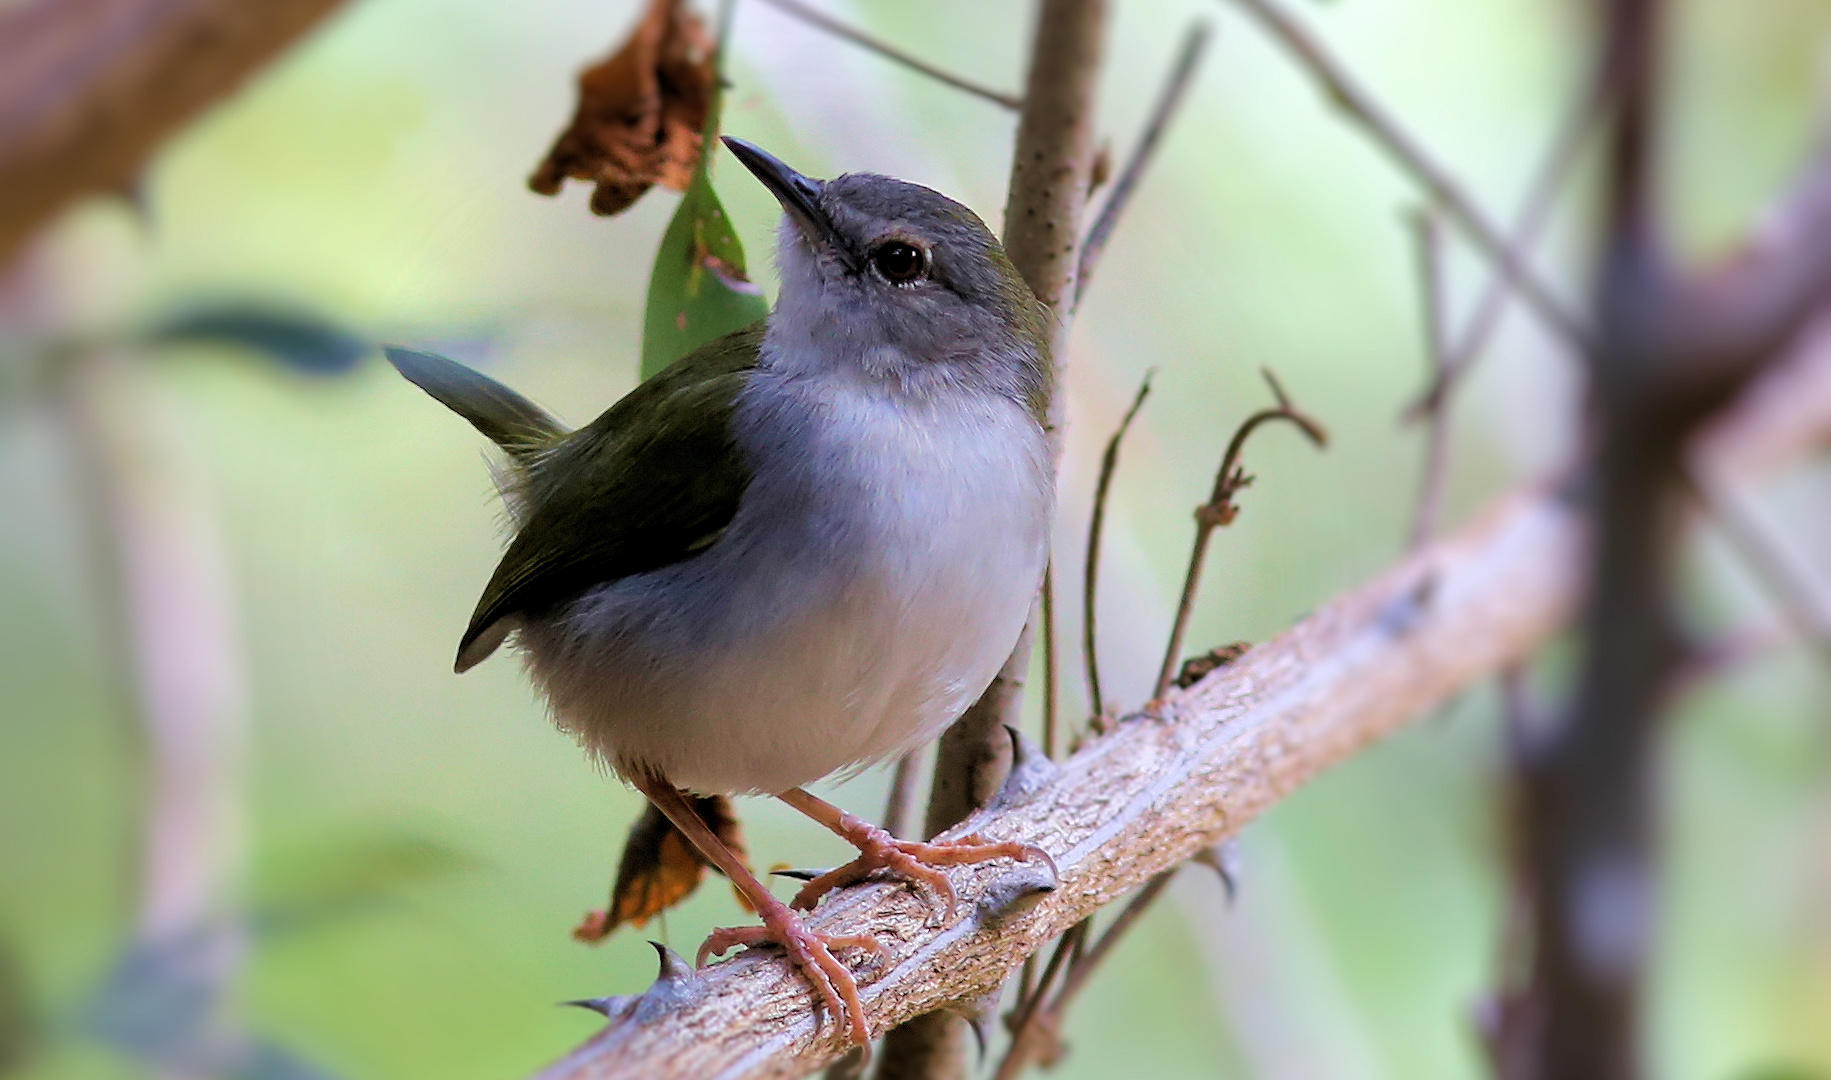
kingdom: Animalia
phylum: Chordata
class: Aves
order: Passeriformes
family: Cisticolidae
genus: Camaroptera
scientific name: Camaroptera brachyura
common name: Green-backed camaroptera
